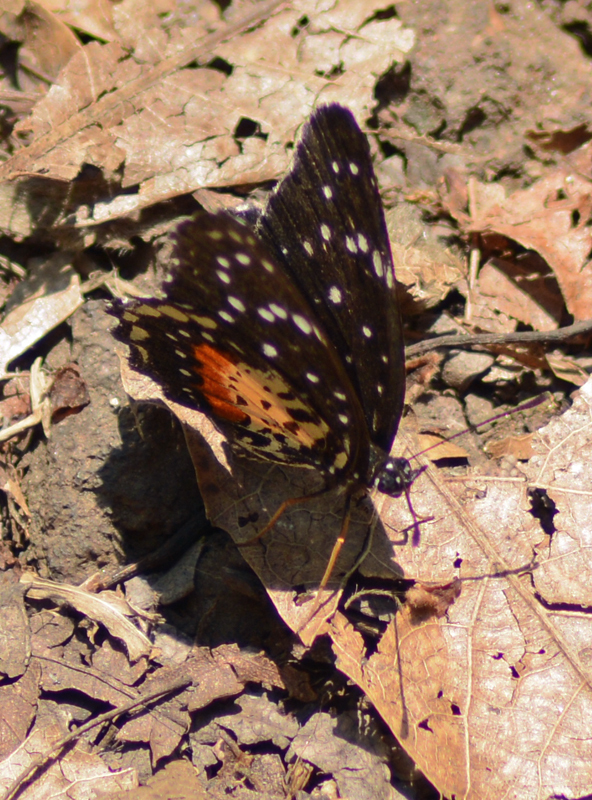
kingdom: Animalia
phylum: Arthropoda
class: Insecta
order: Lepidoptera
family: Nymphalidae
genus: Chlosyne
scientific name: Chlosyne janais
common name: Crimson patch
